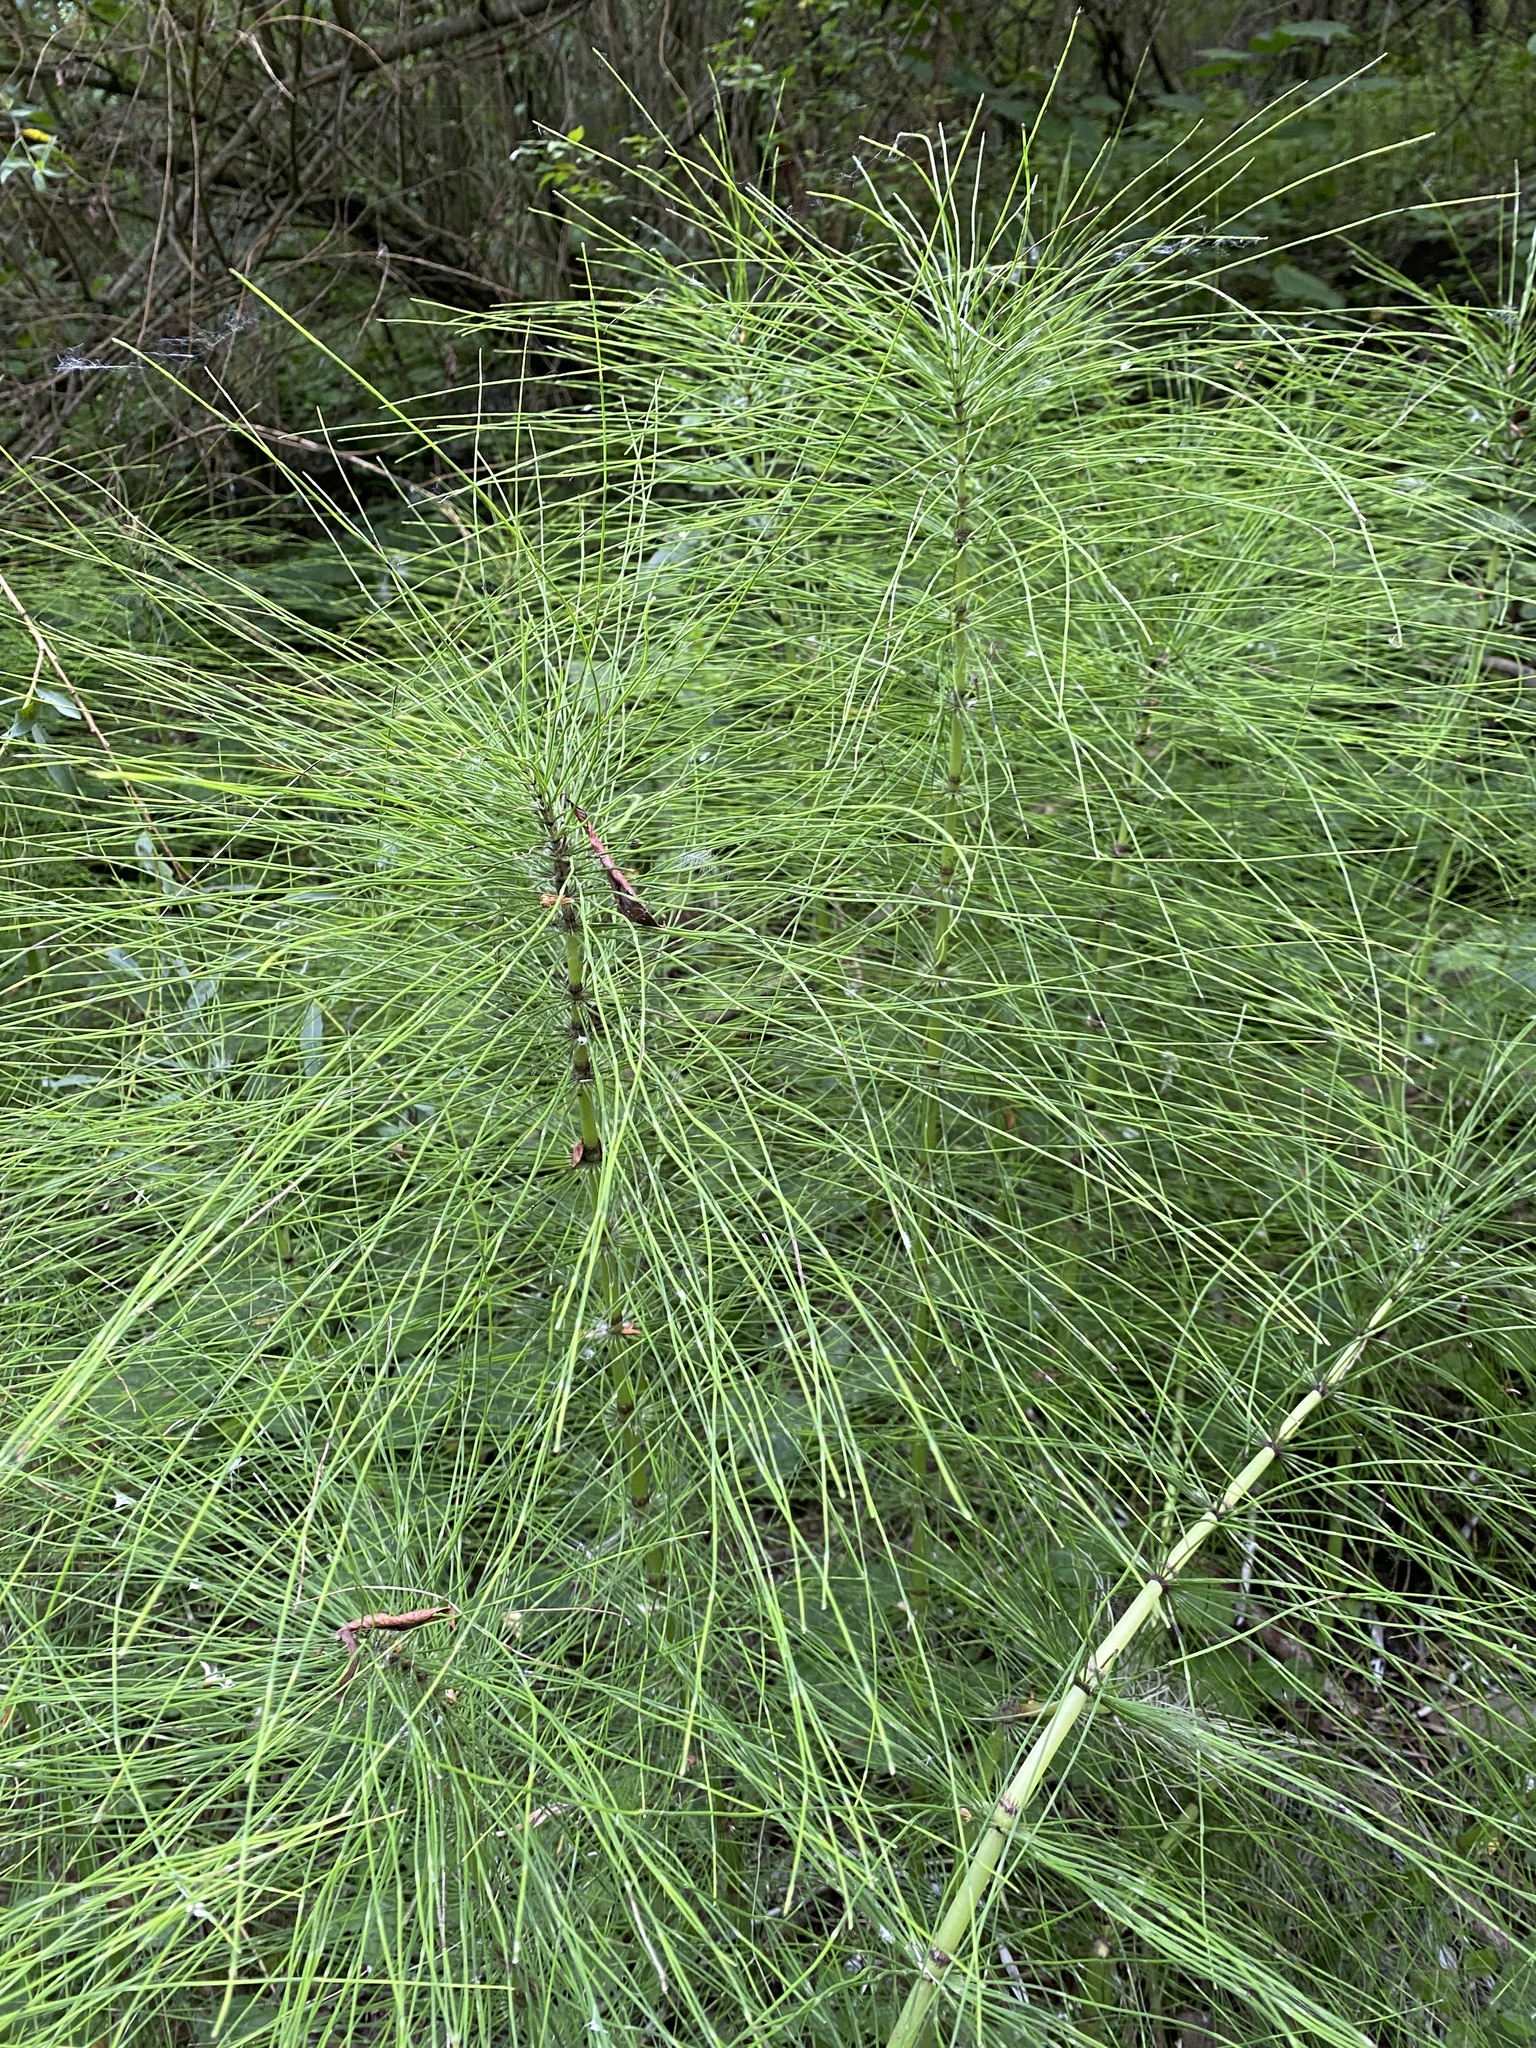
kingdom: Plantae
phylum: Tracheophyta
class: Polypodiopsida
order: Equisetales
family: Equisetaceae
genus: Equisetum
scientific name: Equisetum telmateia
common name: Great horsetail
